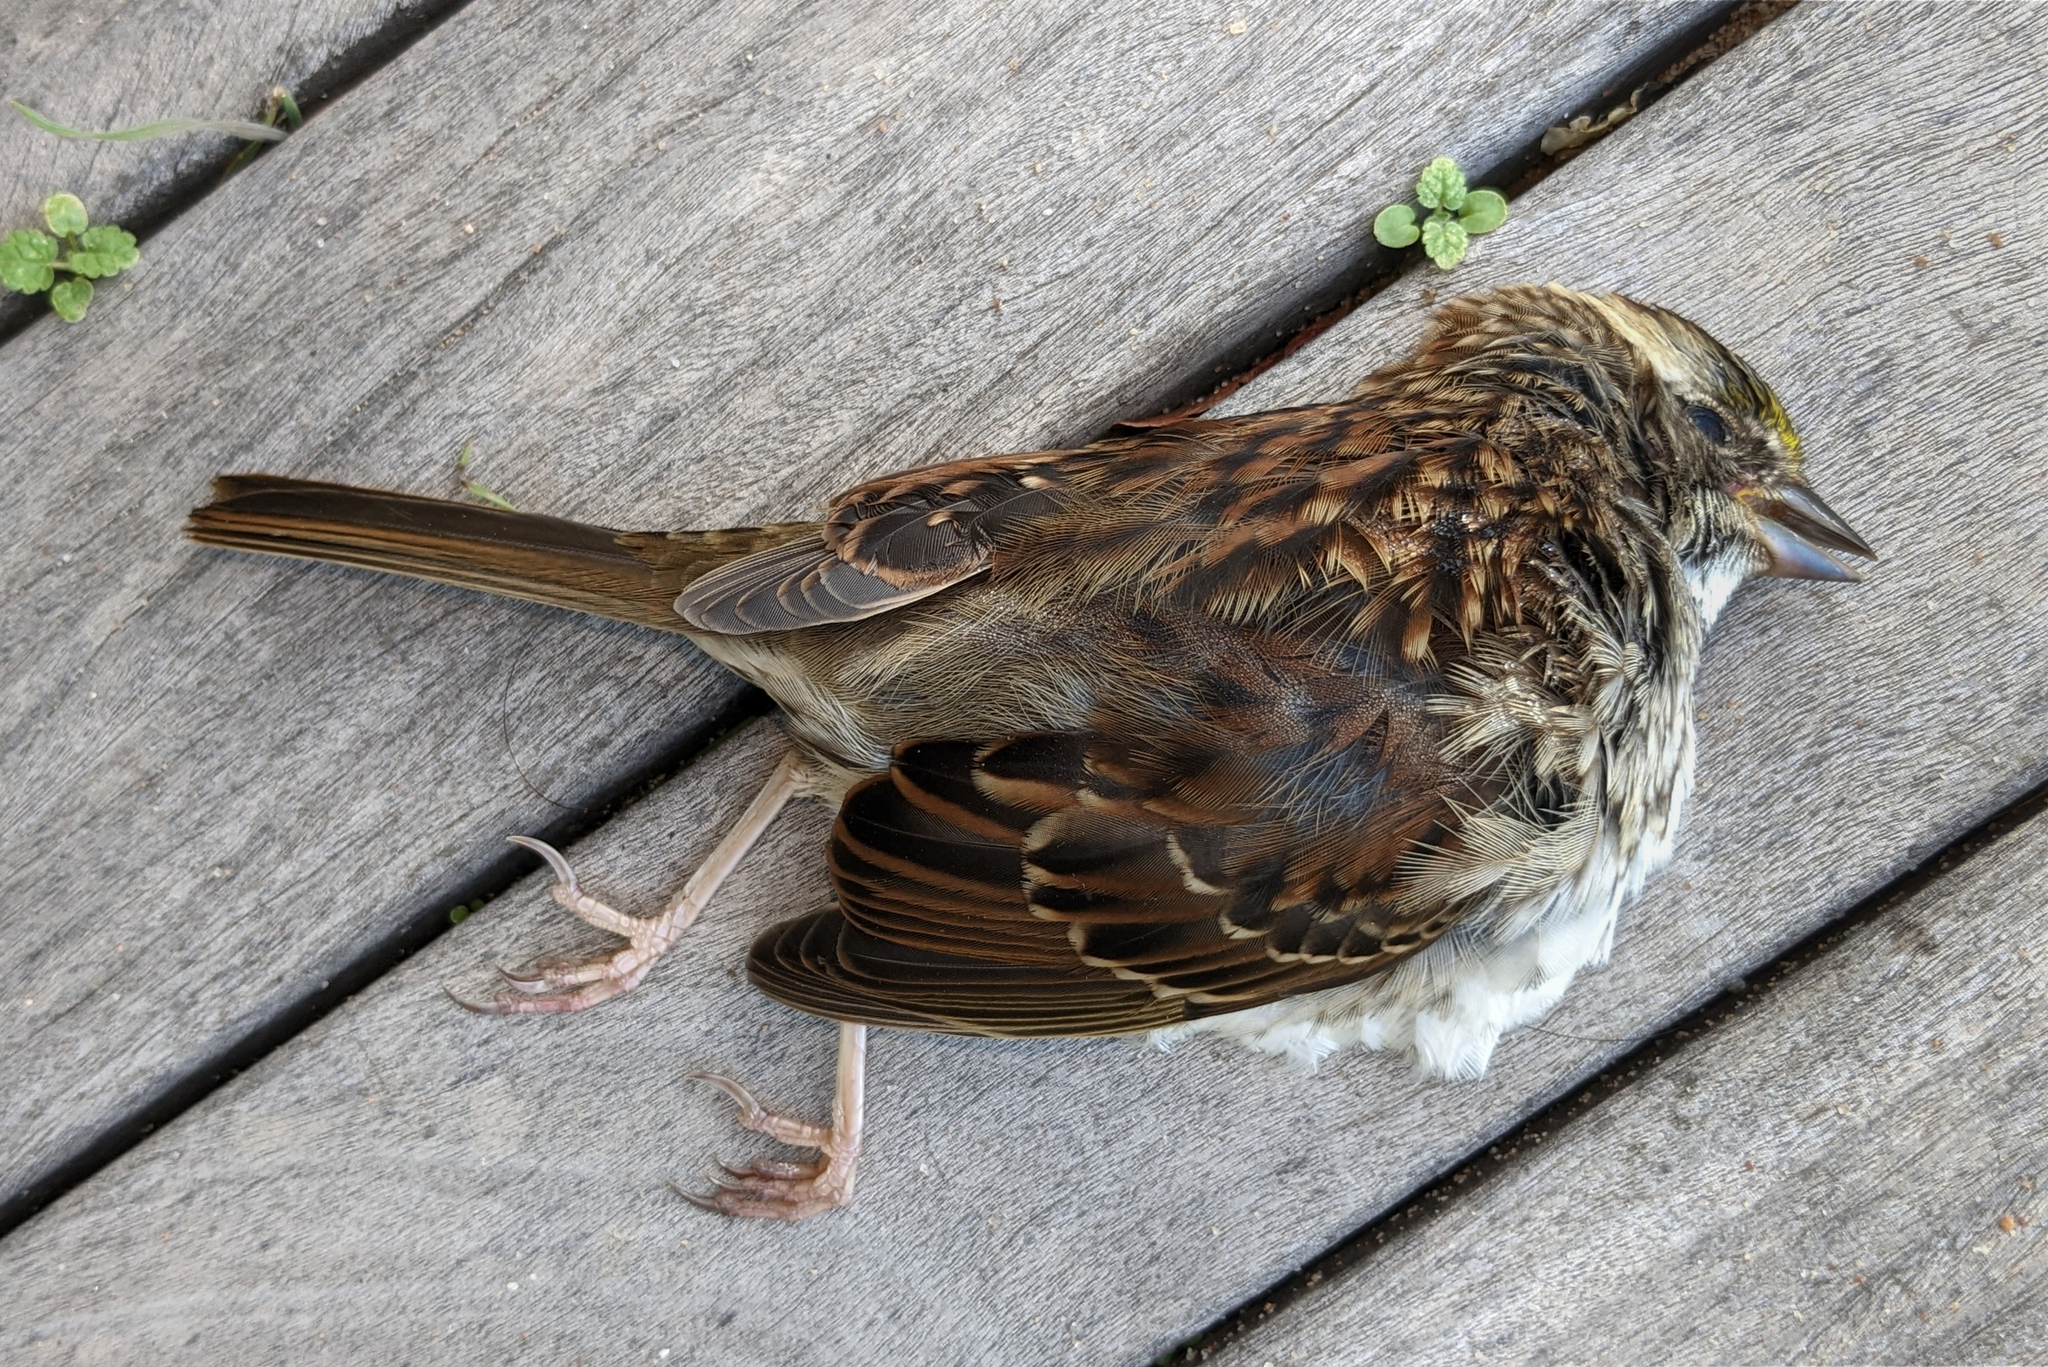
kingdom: Animalia
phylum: Chordata
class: Aves
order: Passeriformes
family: Passerellidae
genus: Zonotrichia
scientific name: Zonotrichia albicollis
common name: White-throated sparrow
